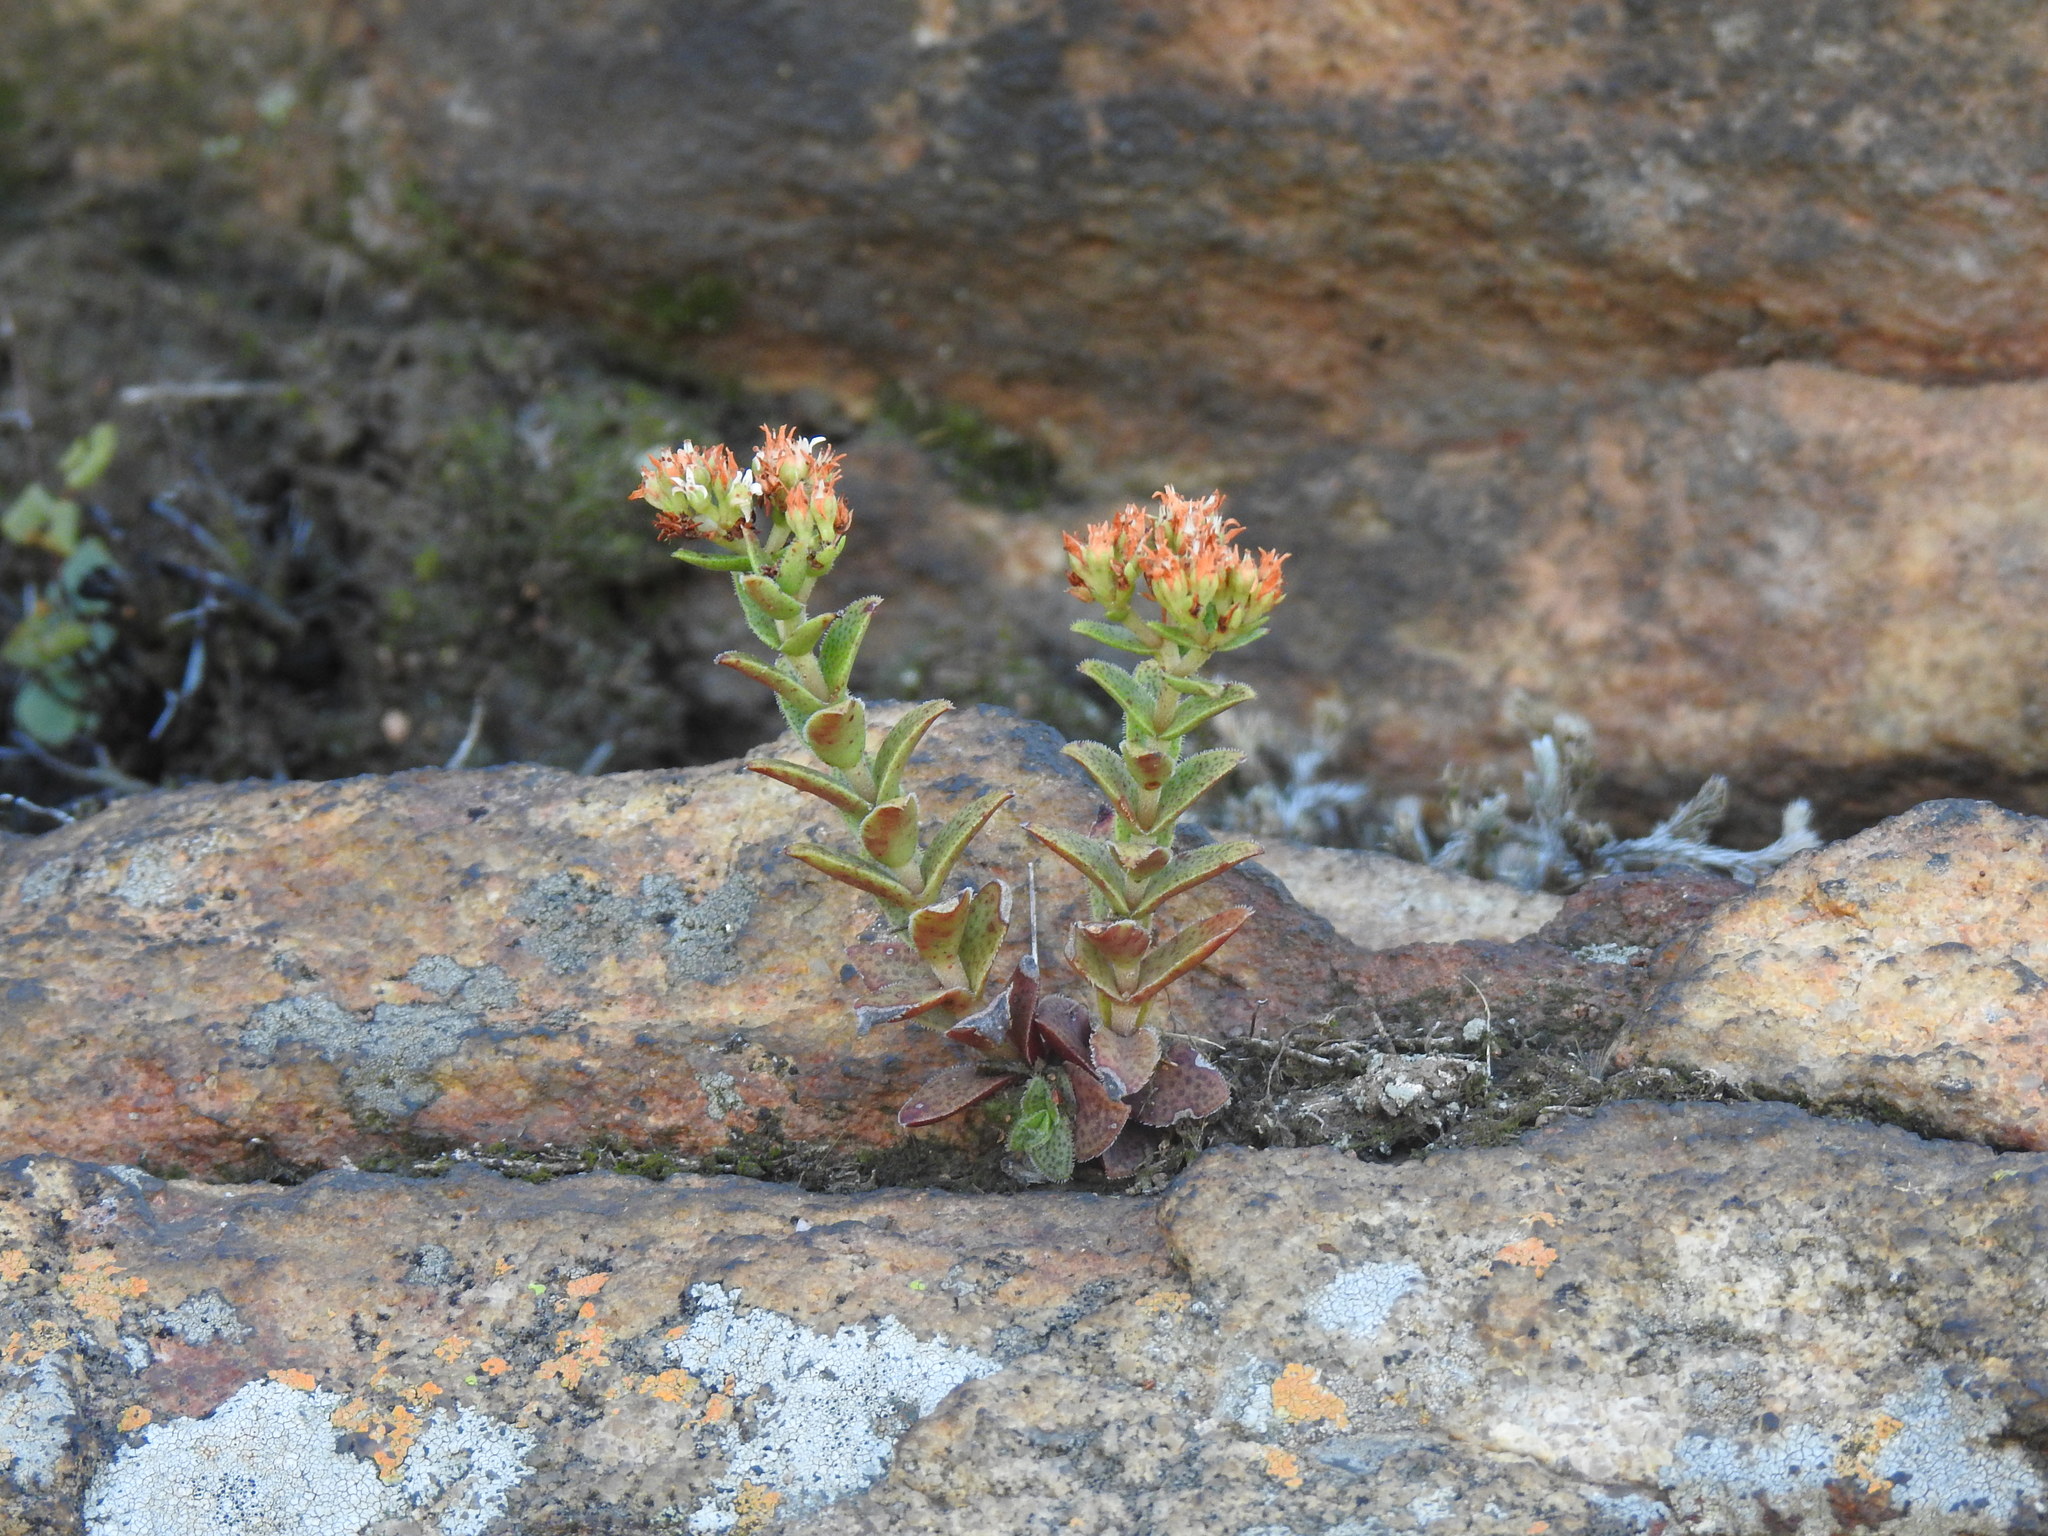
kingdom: Plantae
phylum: Tracheophyta
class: Magnoliopsida
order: Saxifragales
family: Crassulaceae
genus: Crassula
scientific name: Crassula setulosa
